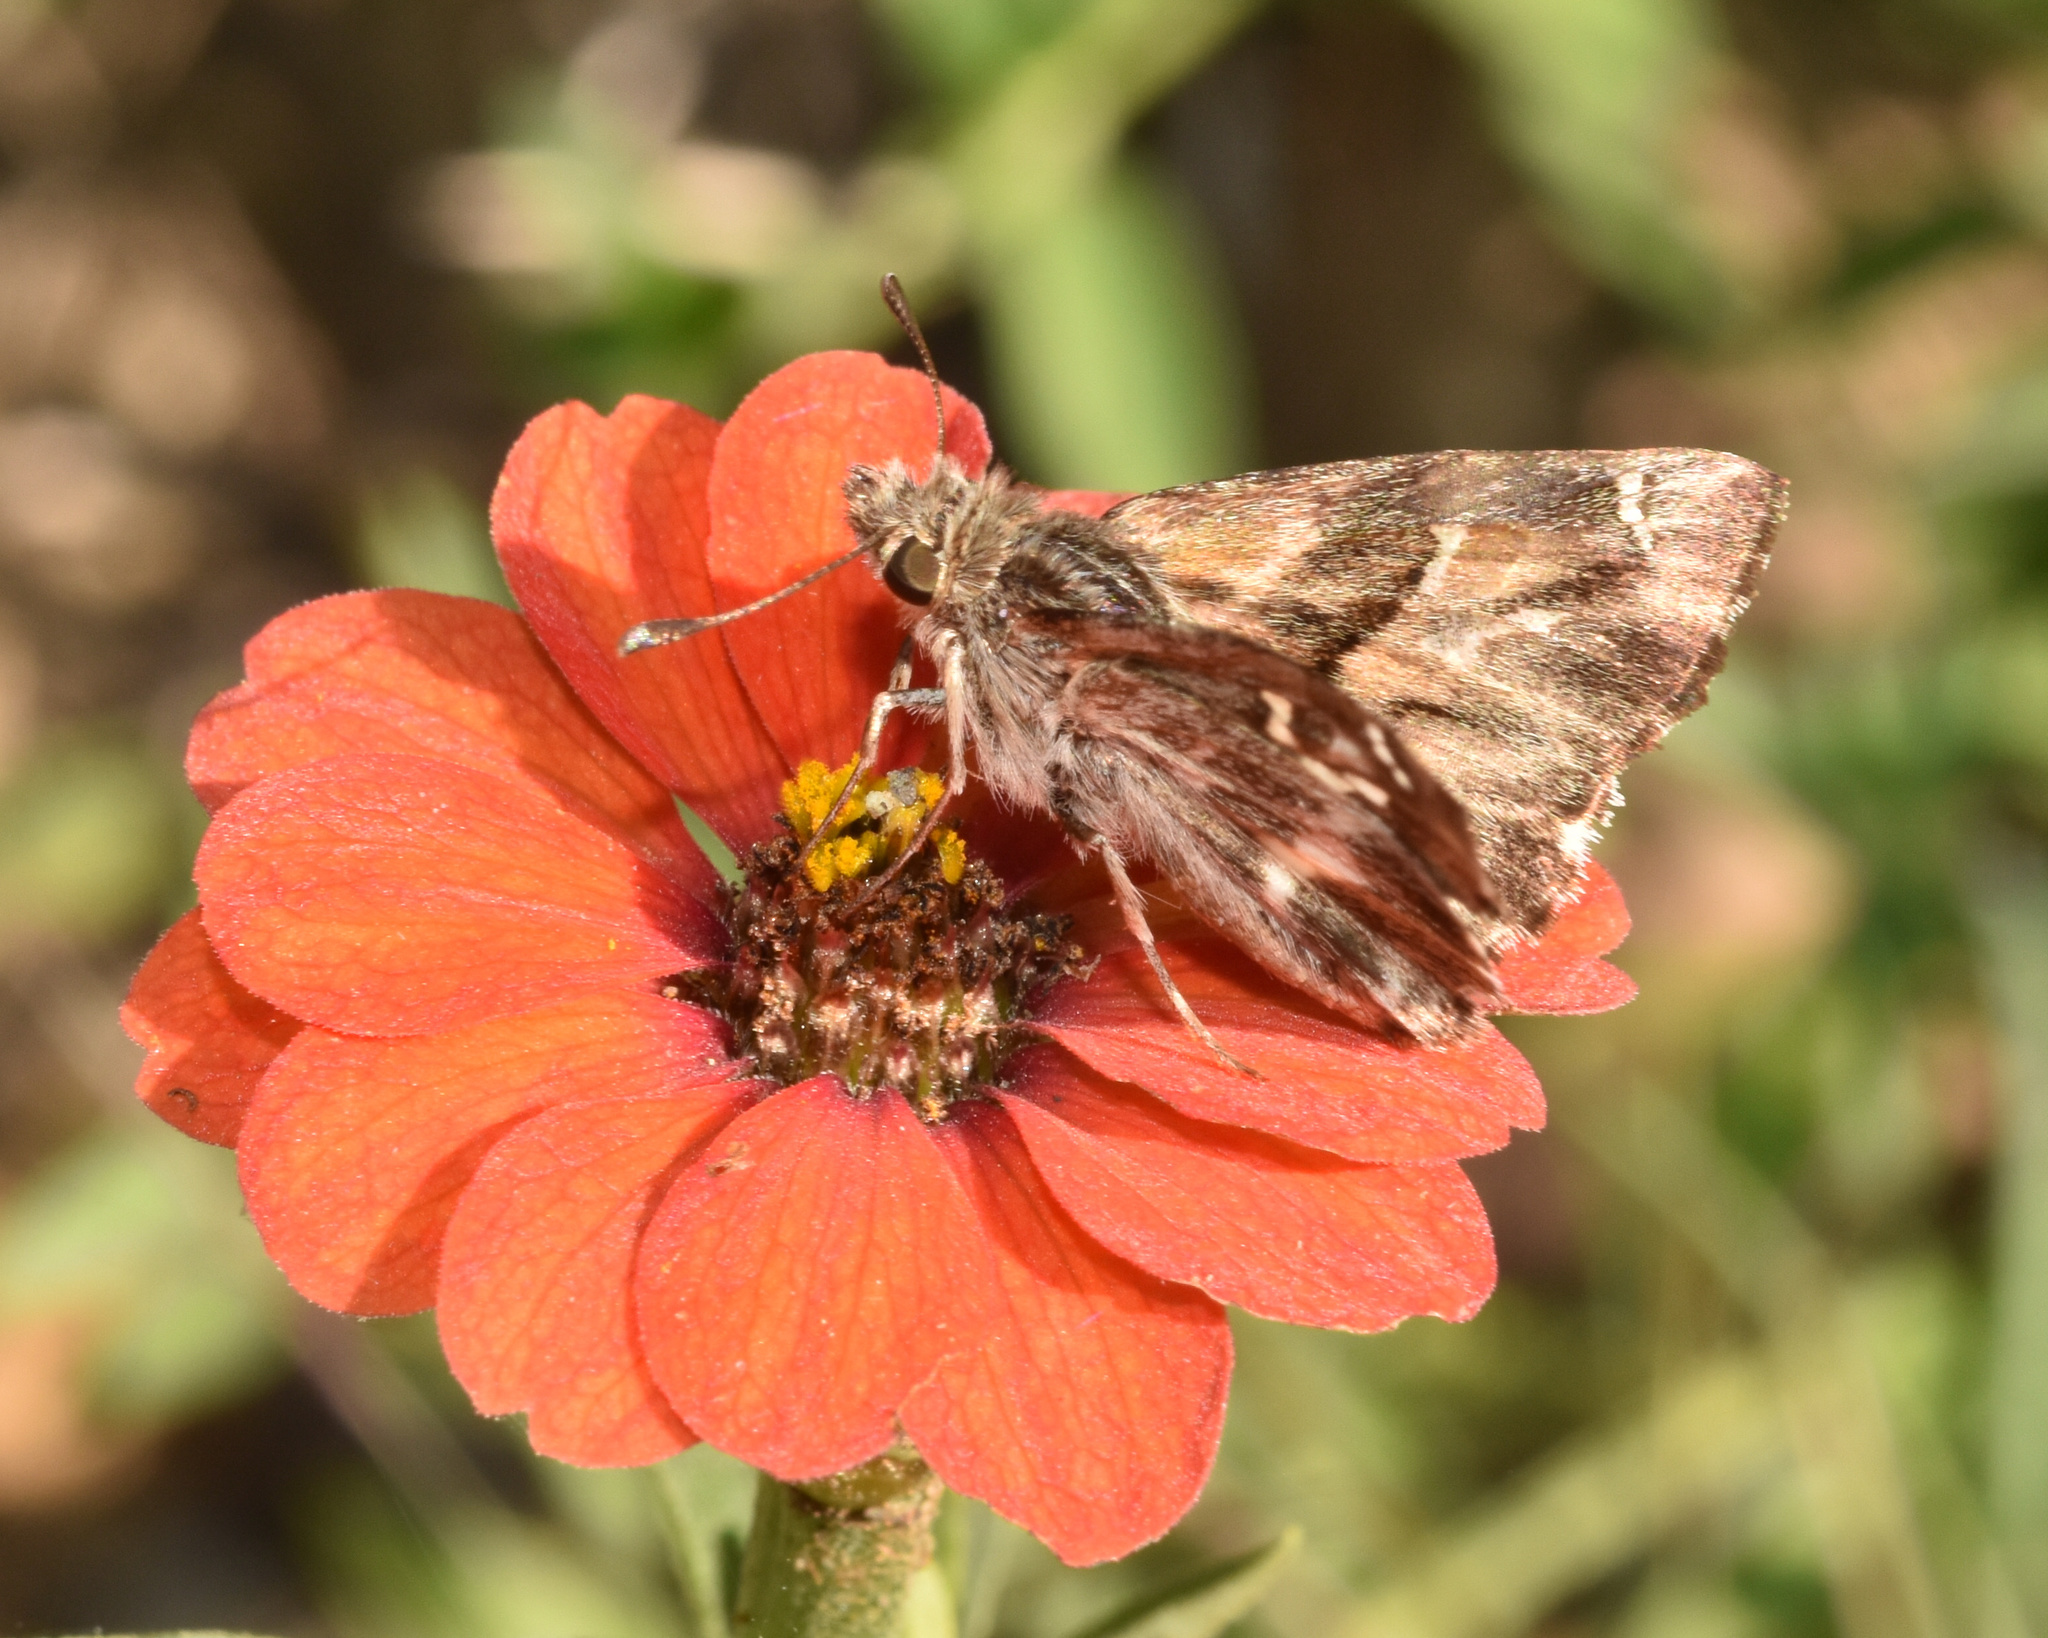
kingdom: Animalia
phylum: Arthropoda
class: Insecta
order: Lepidoptera
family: Hesperiidae
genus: Gomalia
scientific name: Gomalia elma
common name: Green-marbled skipper
